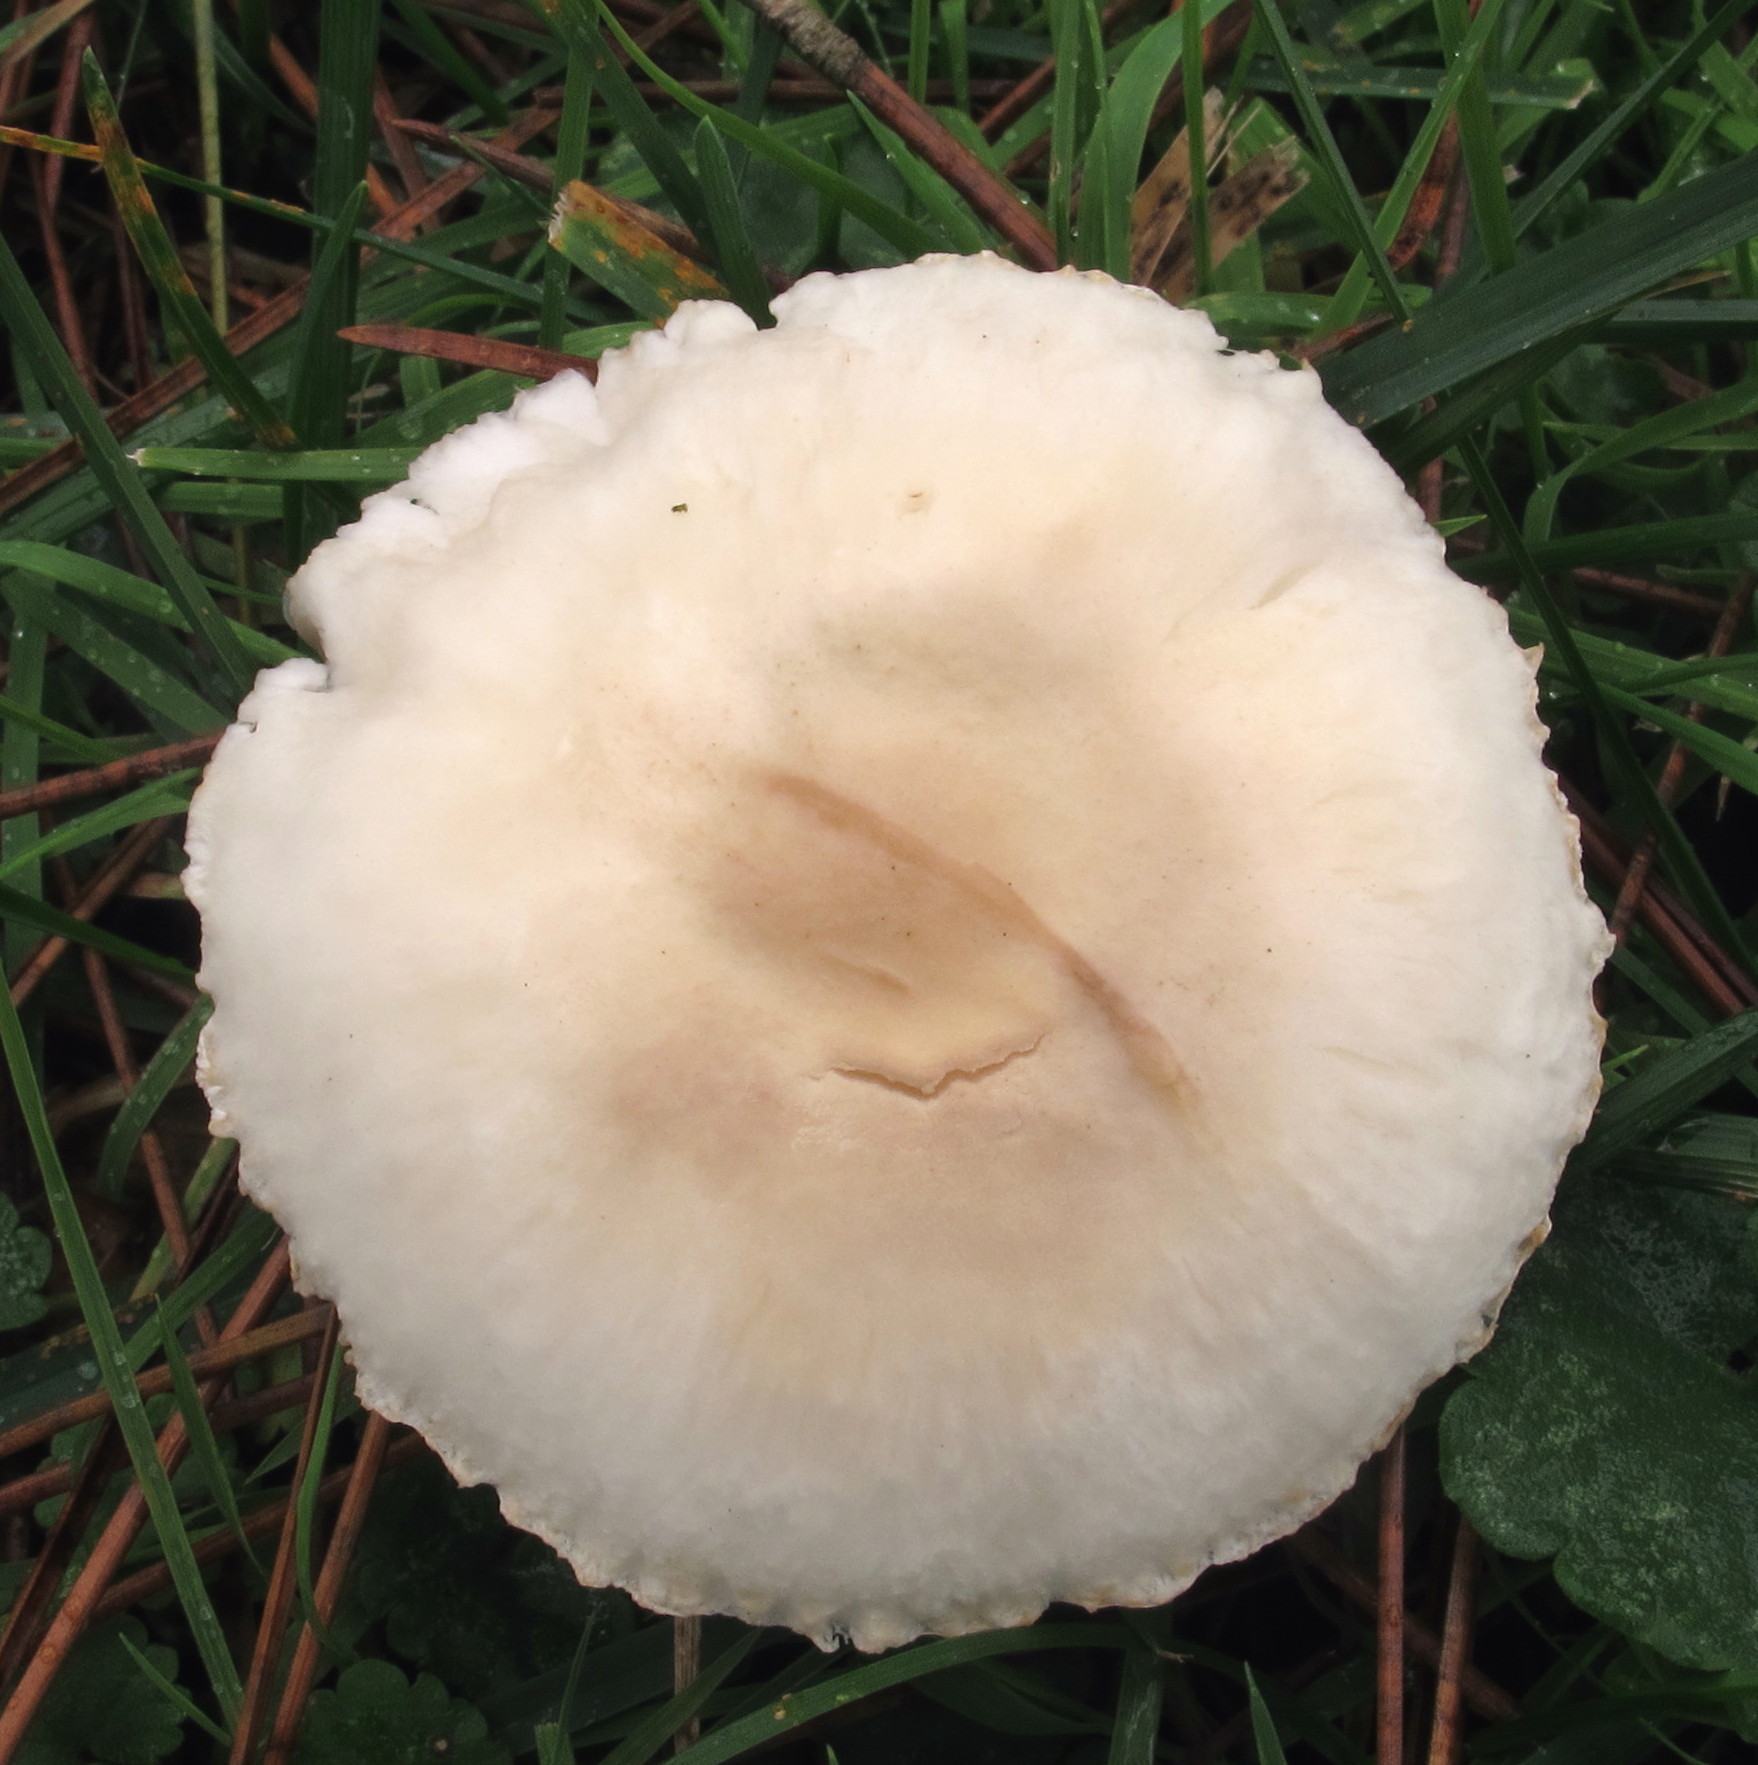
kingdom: Fungi
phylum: Basidiomycota
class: Agaricomycetes
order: Agaricales
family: Agaricaceae
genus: Leucoagaricus
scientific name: Leucoagaricus leucothites
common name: White dapperling
